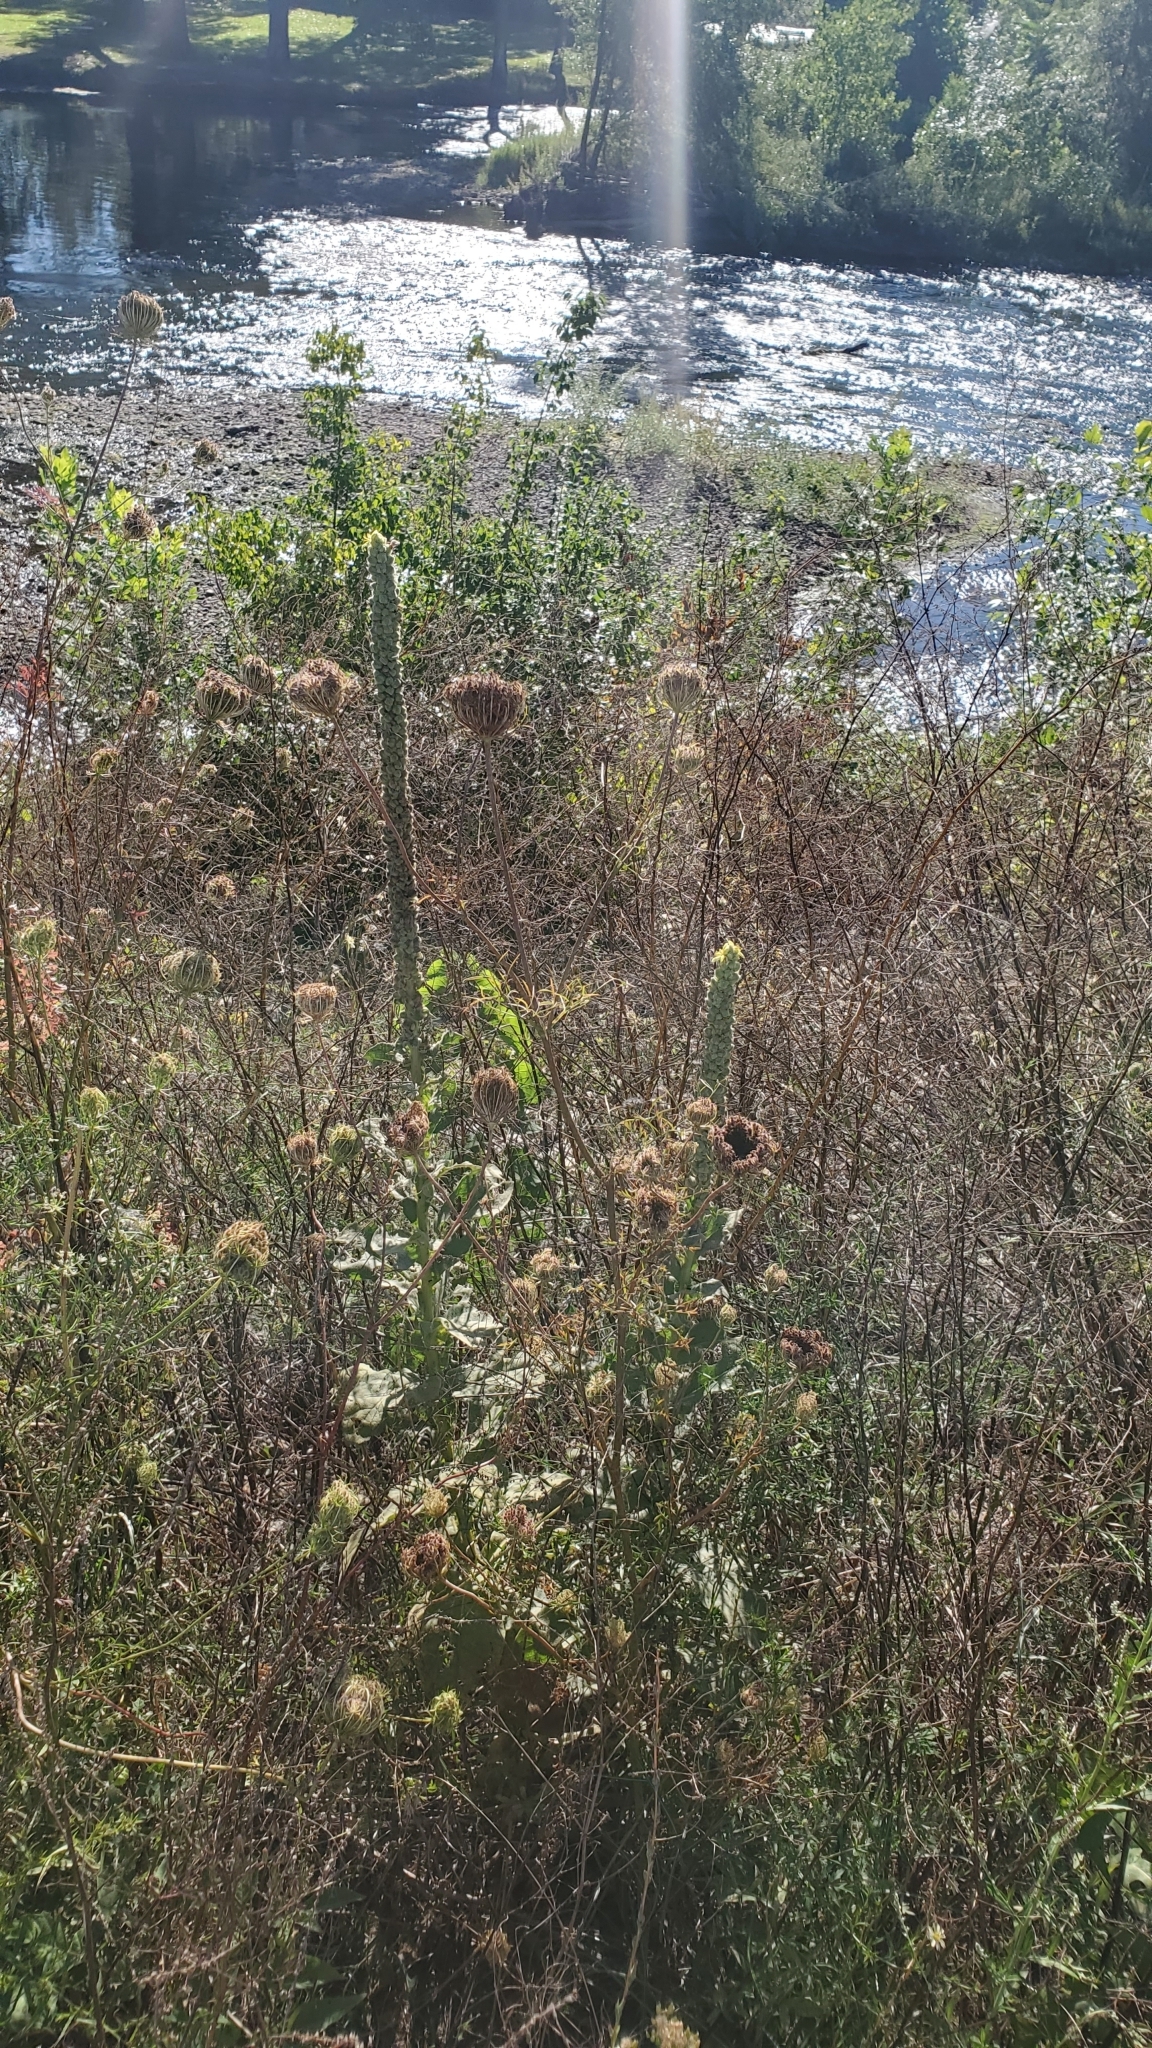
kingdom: Plantae
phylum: Tracheophyta
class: Magnoliopsida
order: Lamiales
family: Scrophulariaceae
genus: Verbascum
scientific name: Verbascum thapsus
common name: Common mullein
